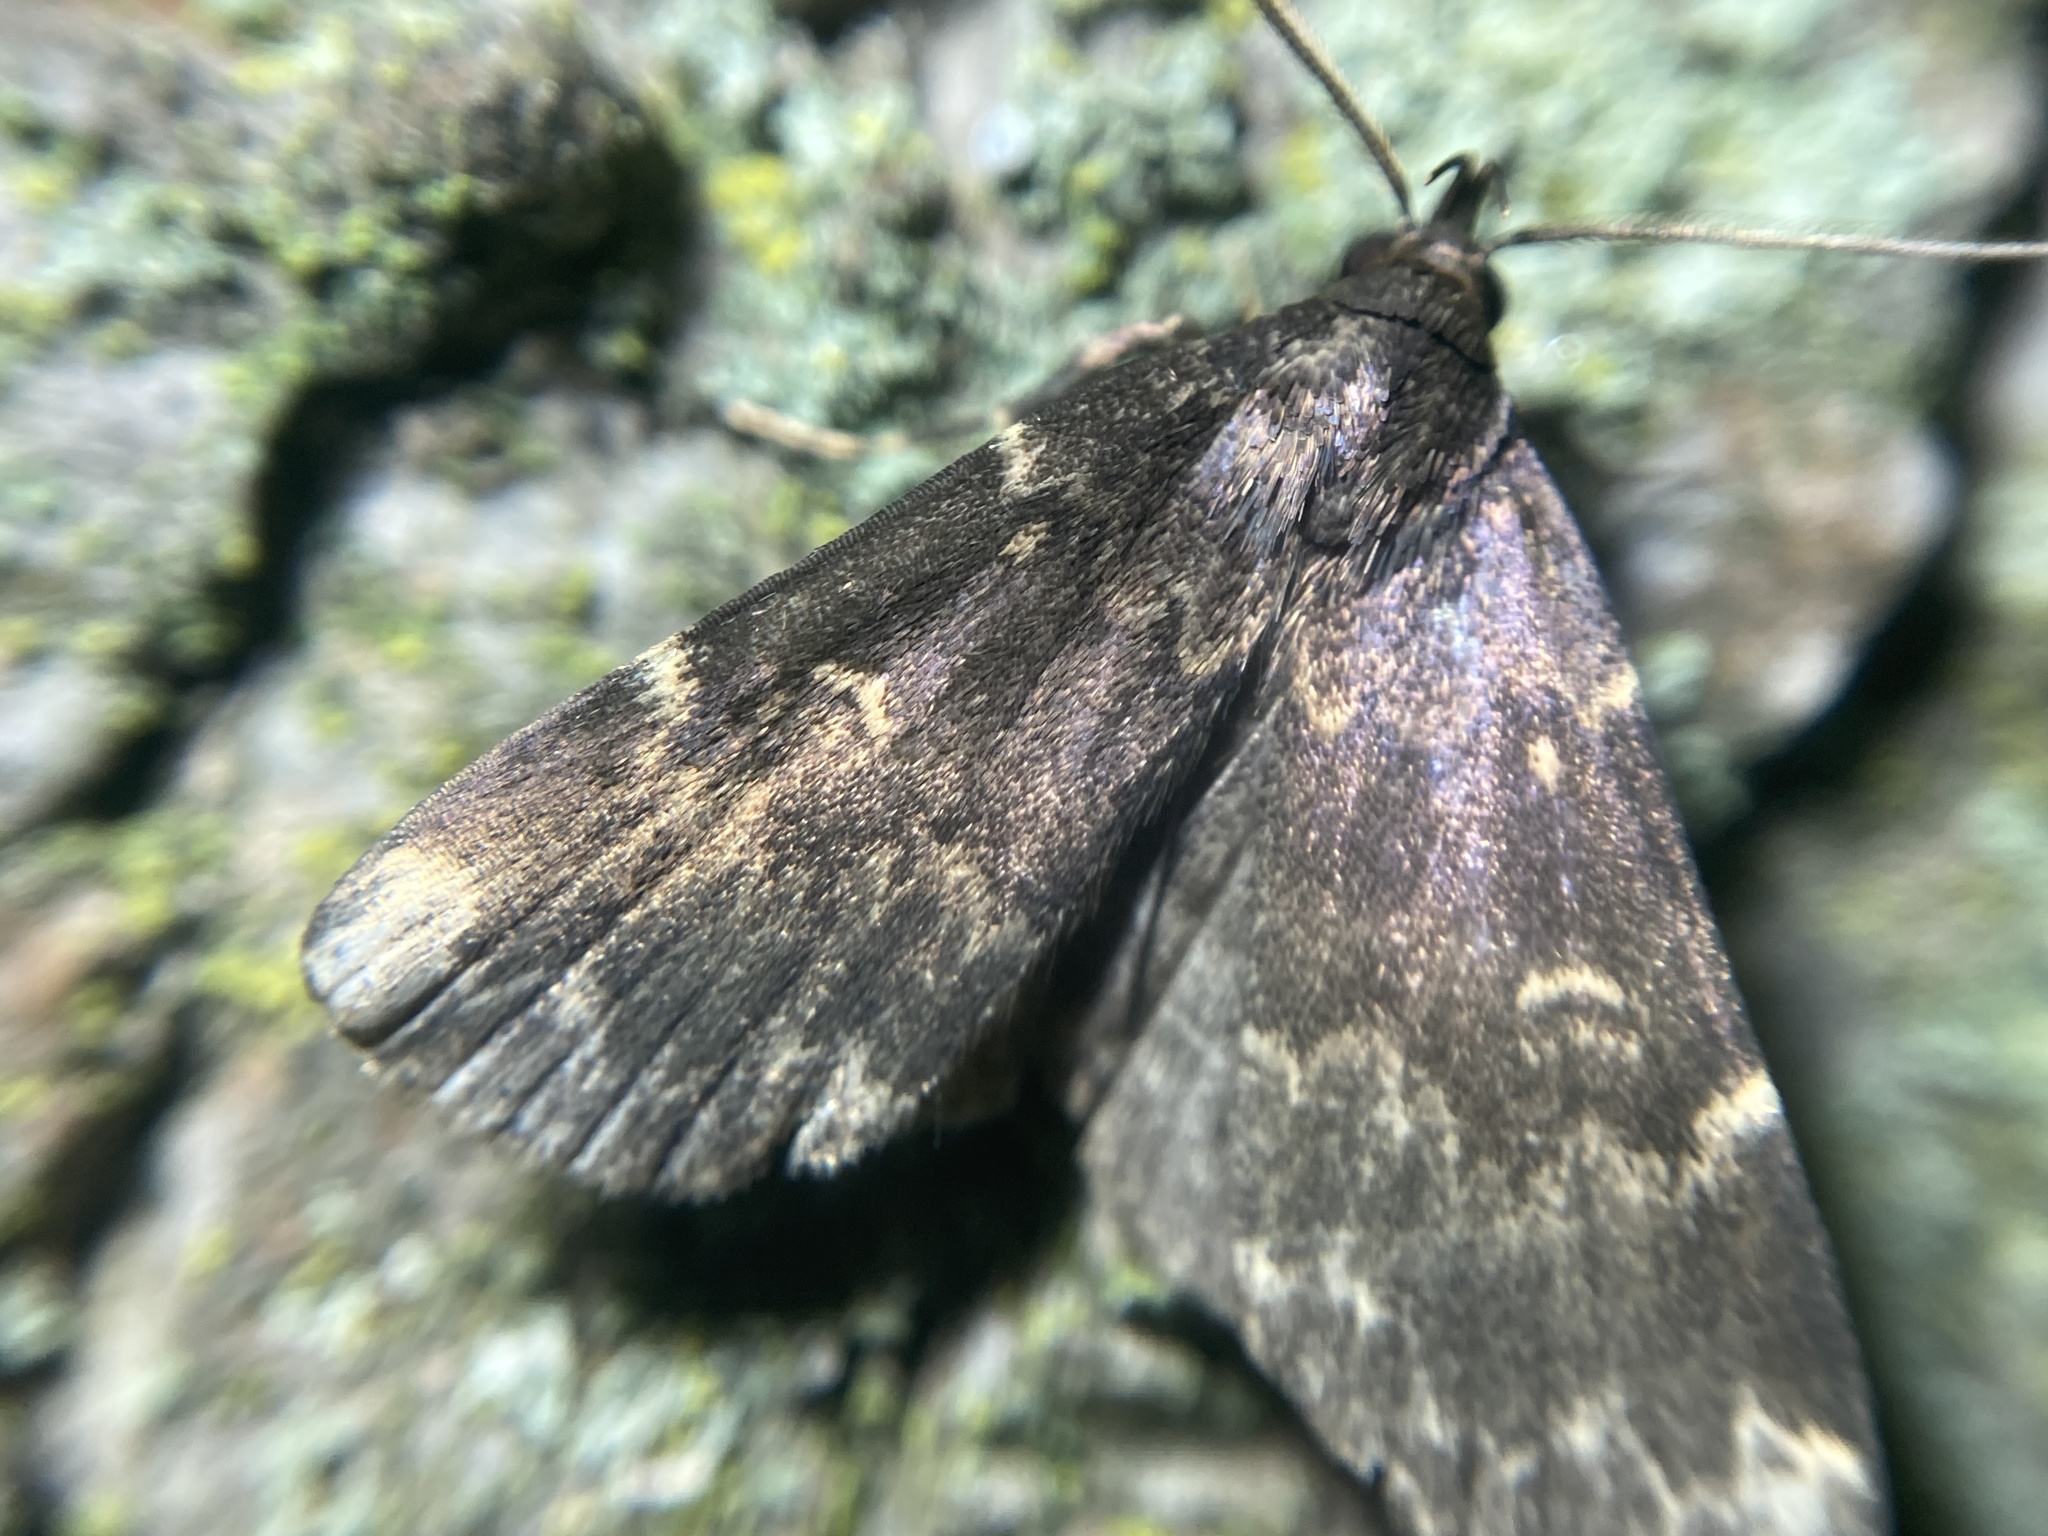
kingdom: Animalia
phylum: Arthropoda
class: Insecta
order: Lepidoptera
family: Erebidae
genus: Idia
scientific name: Idia lubricalis
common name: Twin-striped tabby
